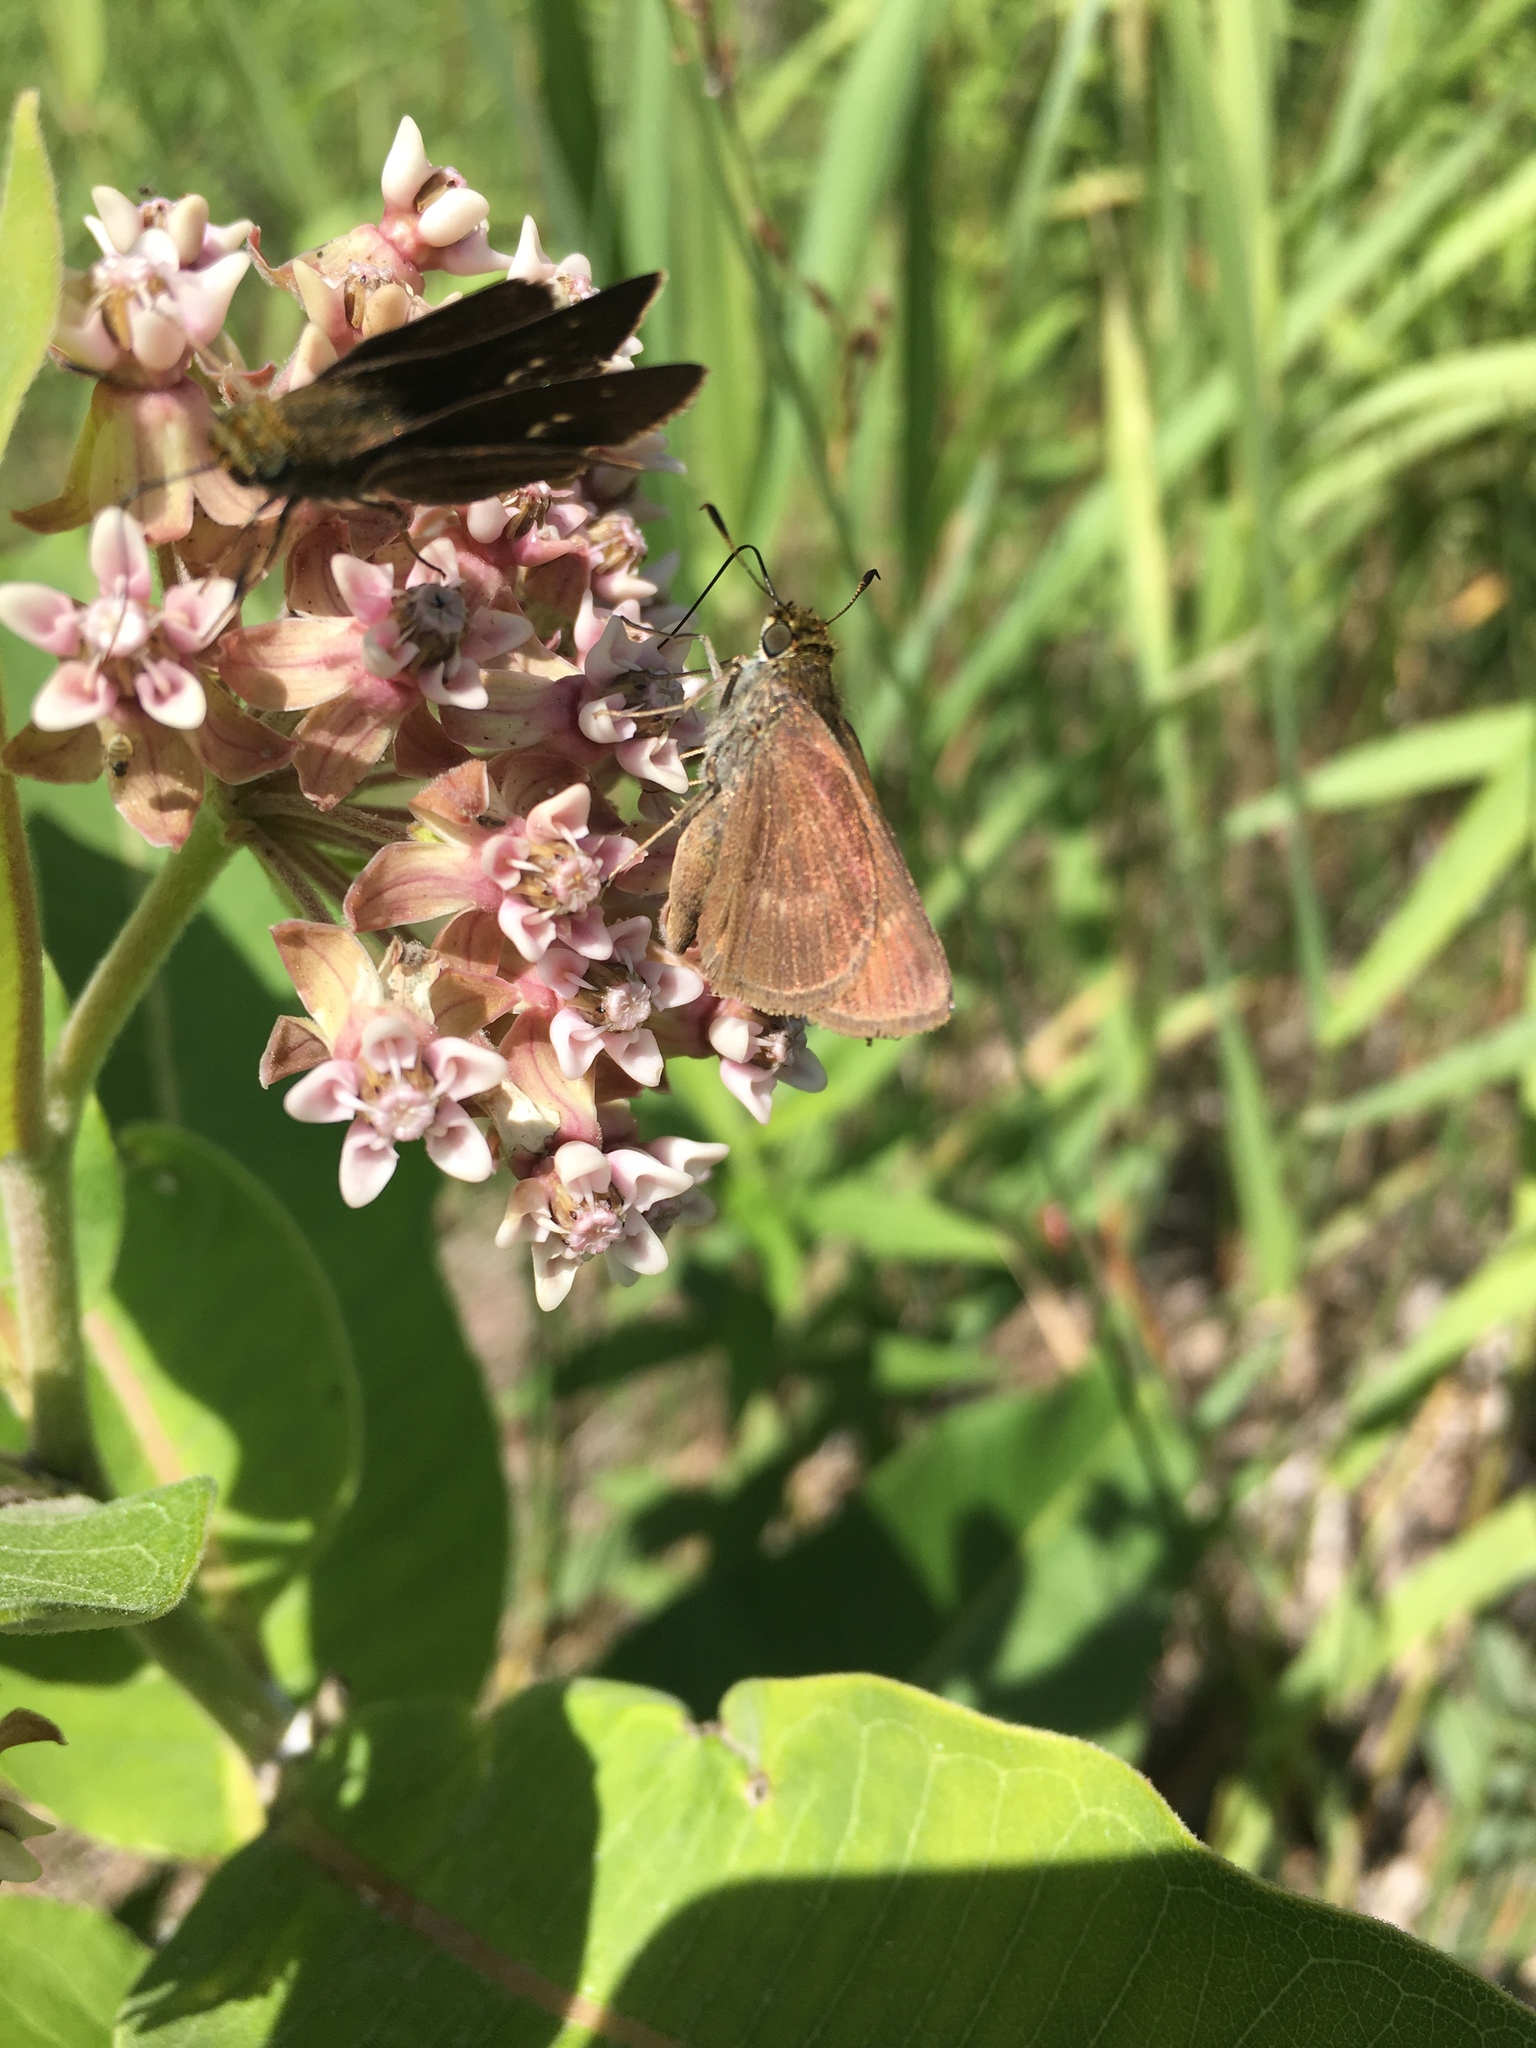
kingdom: Animalia
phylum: Arthropoda
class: Insecta
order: Lepidoptera
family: Hesperiidae
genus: Euphyes
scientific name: Euphyes vestris
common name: Dun skipper
